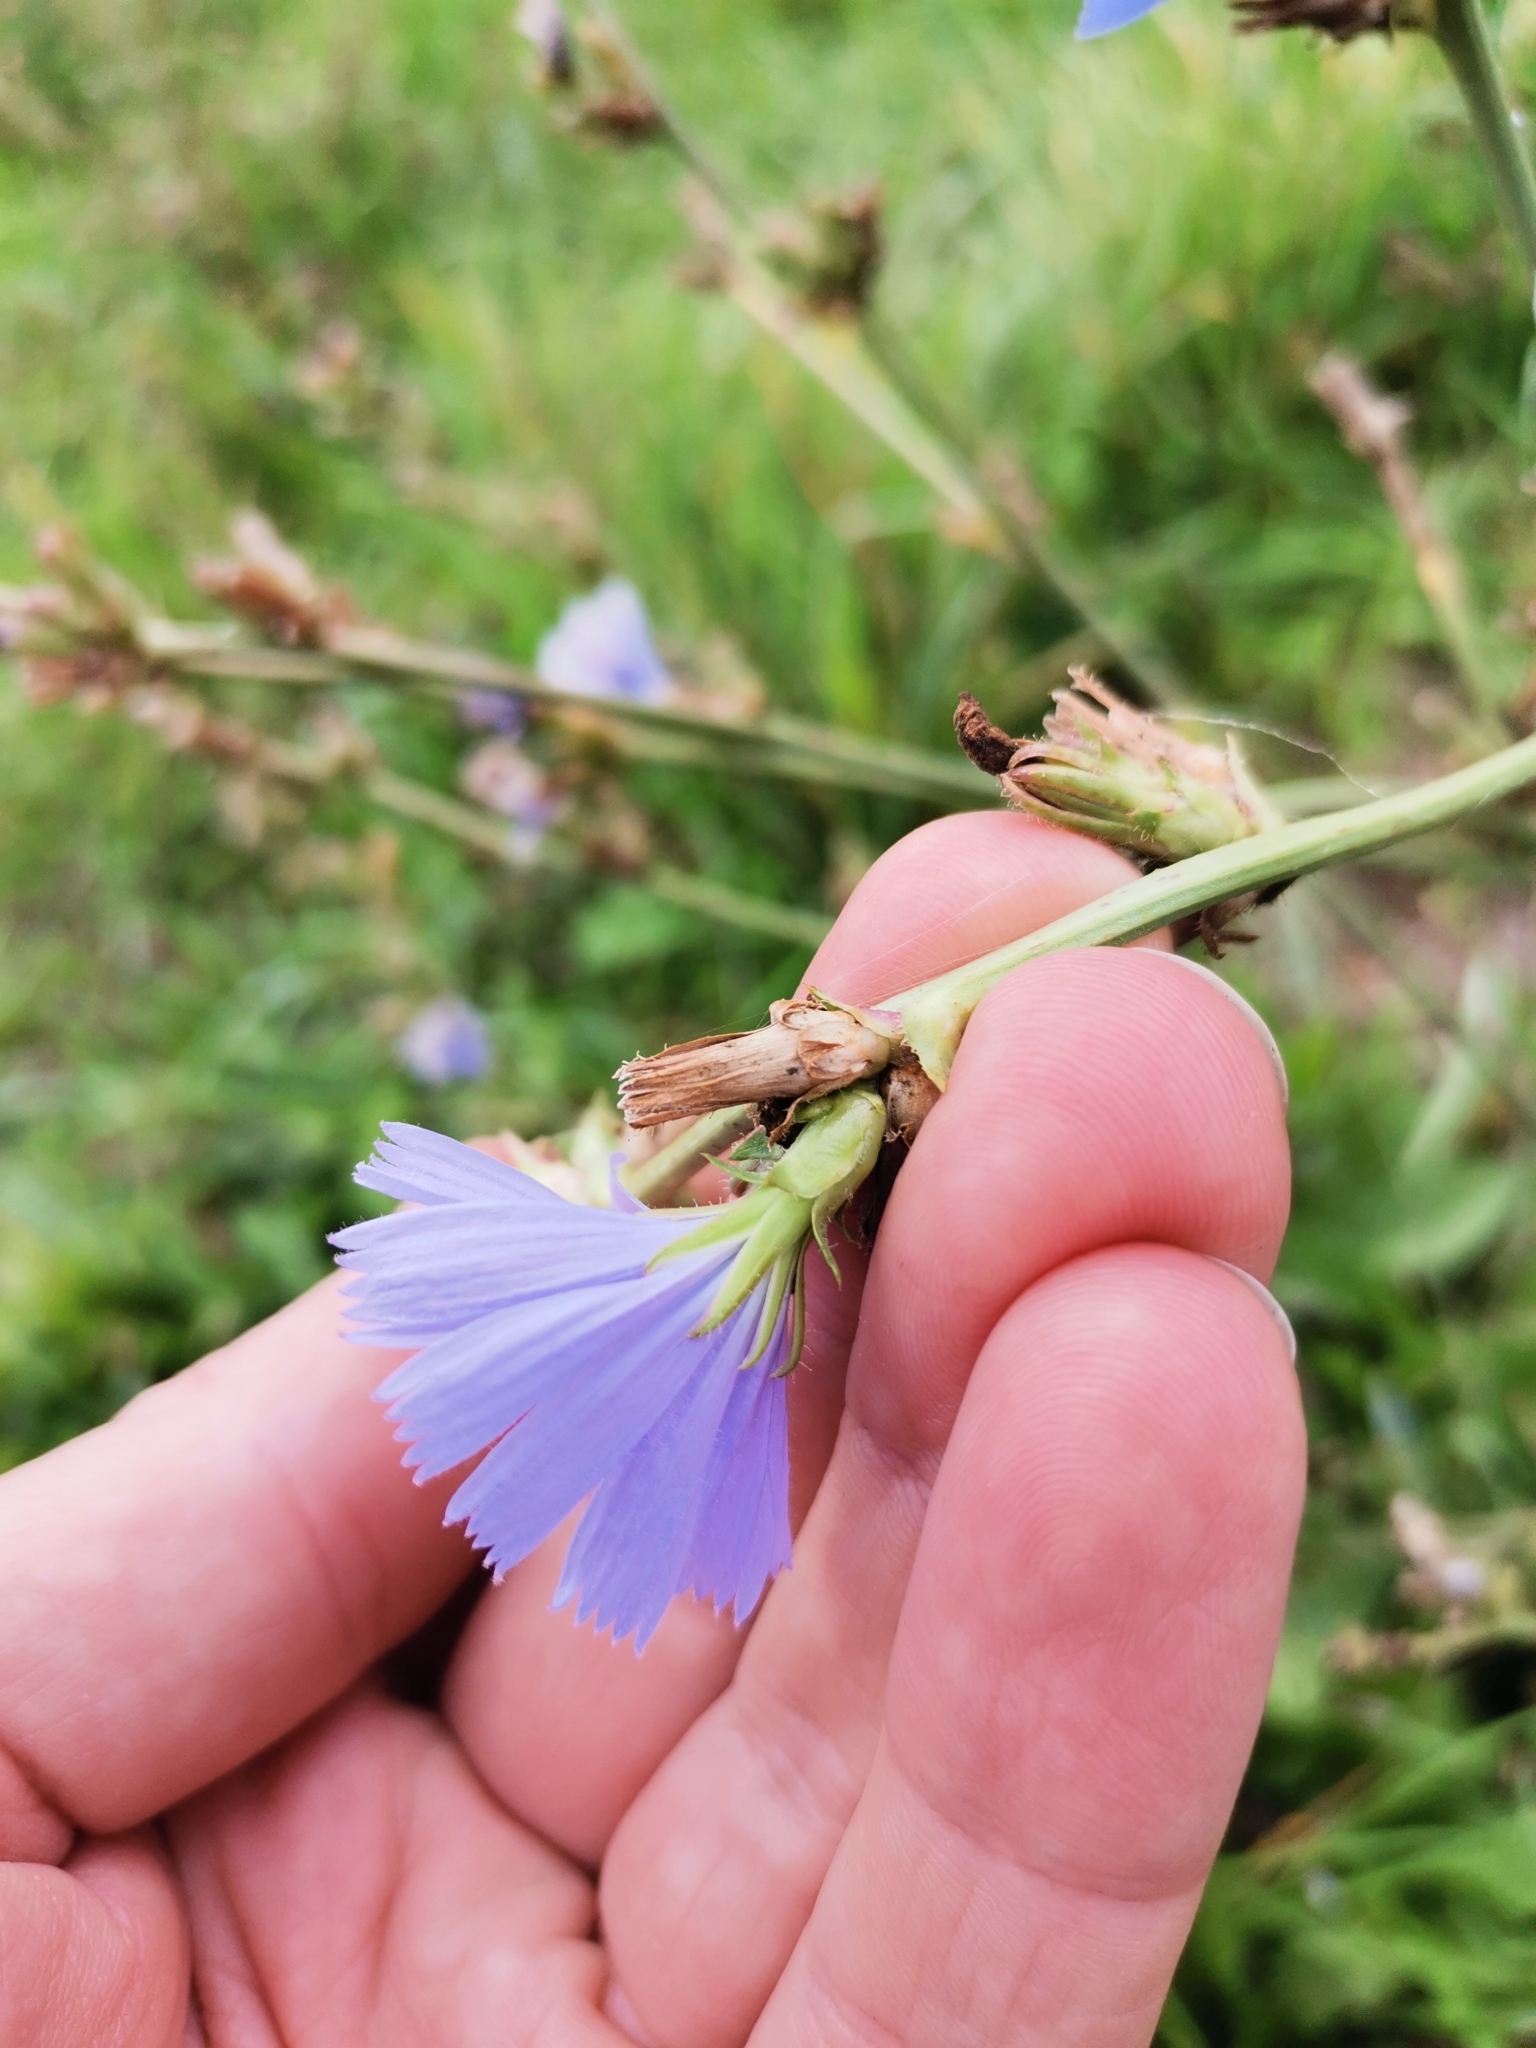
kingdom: Plantae
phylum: Tracheophyta
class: Magnoliopsida
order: Asterales
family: Asteraceae
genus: Cichorium
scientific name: Cichorium intybus
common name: Chicory
